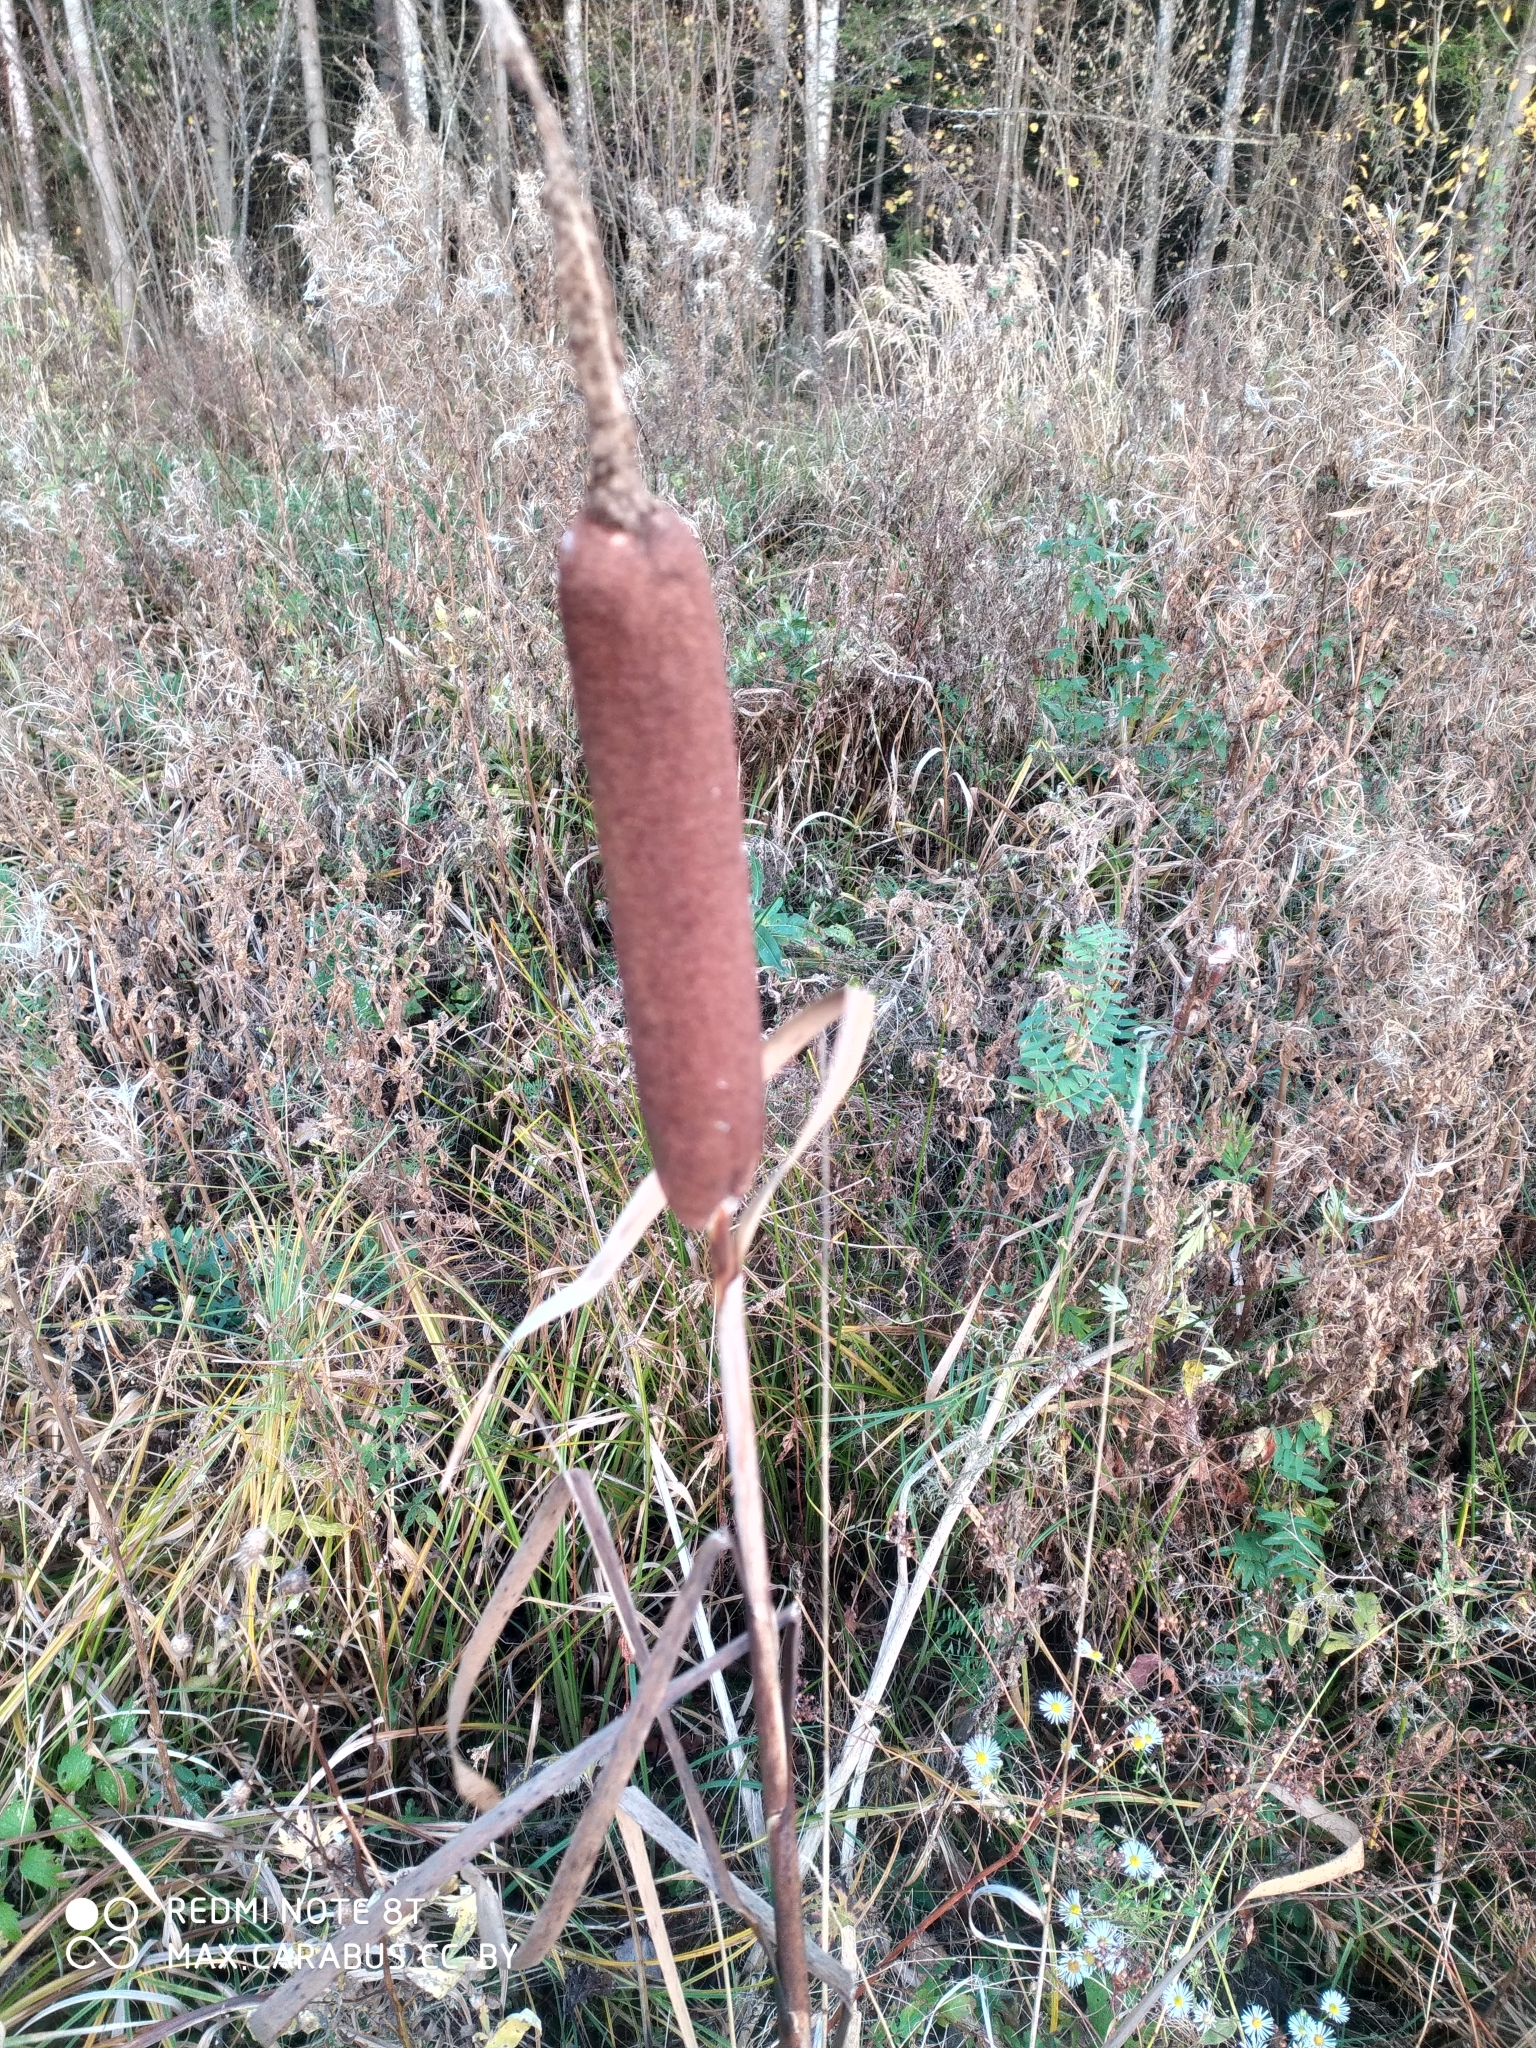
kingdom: Plantae
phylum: Tracheophyta
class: Liliopsida
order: Poales
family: Typhaceae
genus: Typha
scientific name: Typha latifolia
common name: Broadleaf cattail
